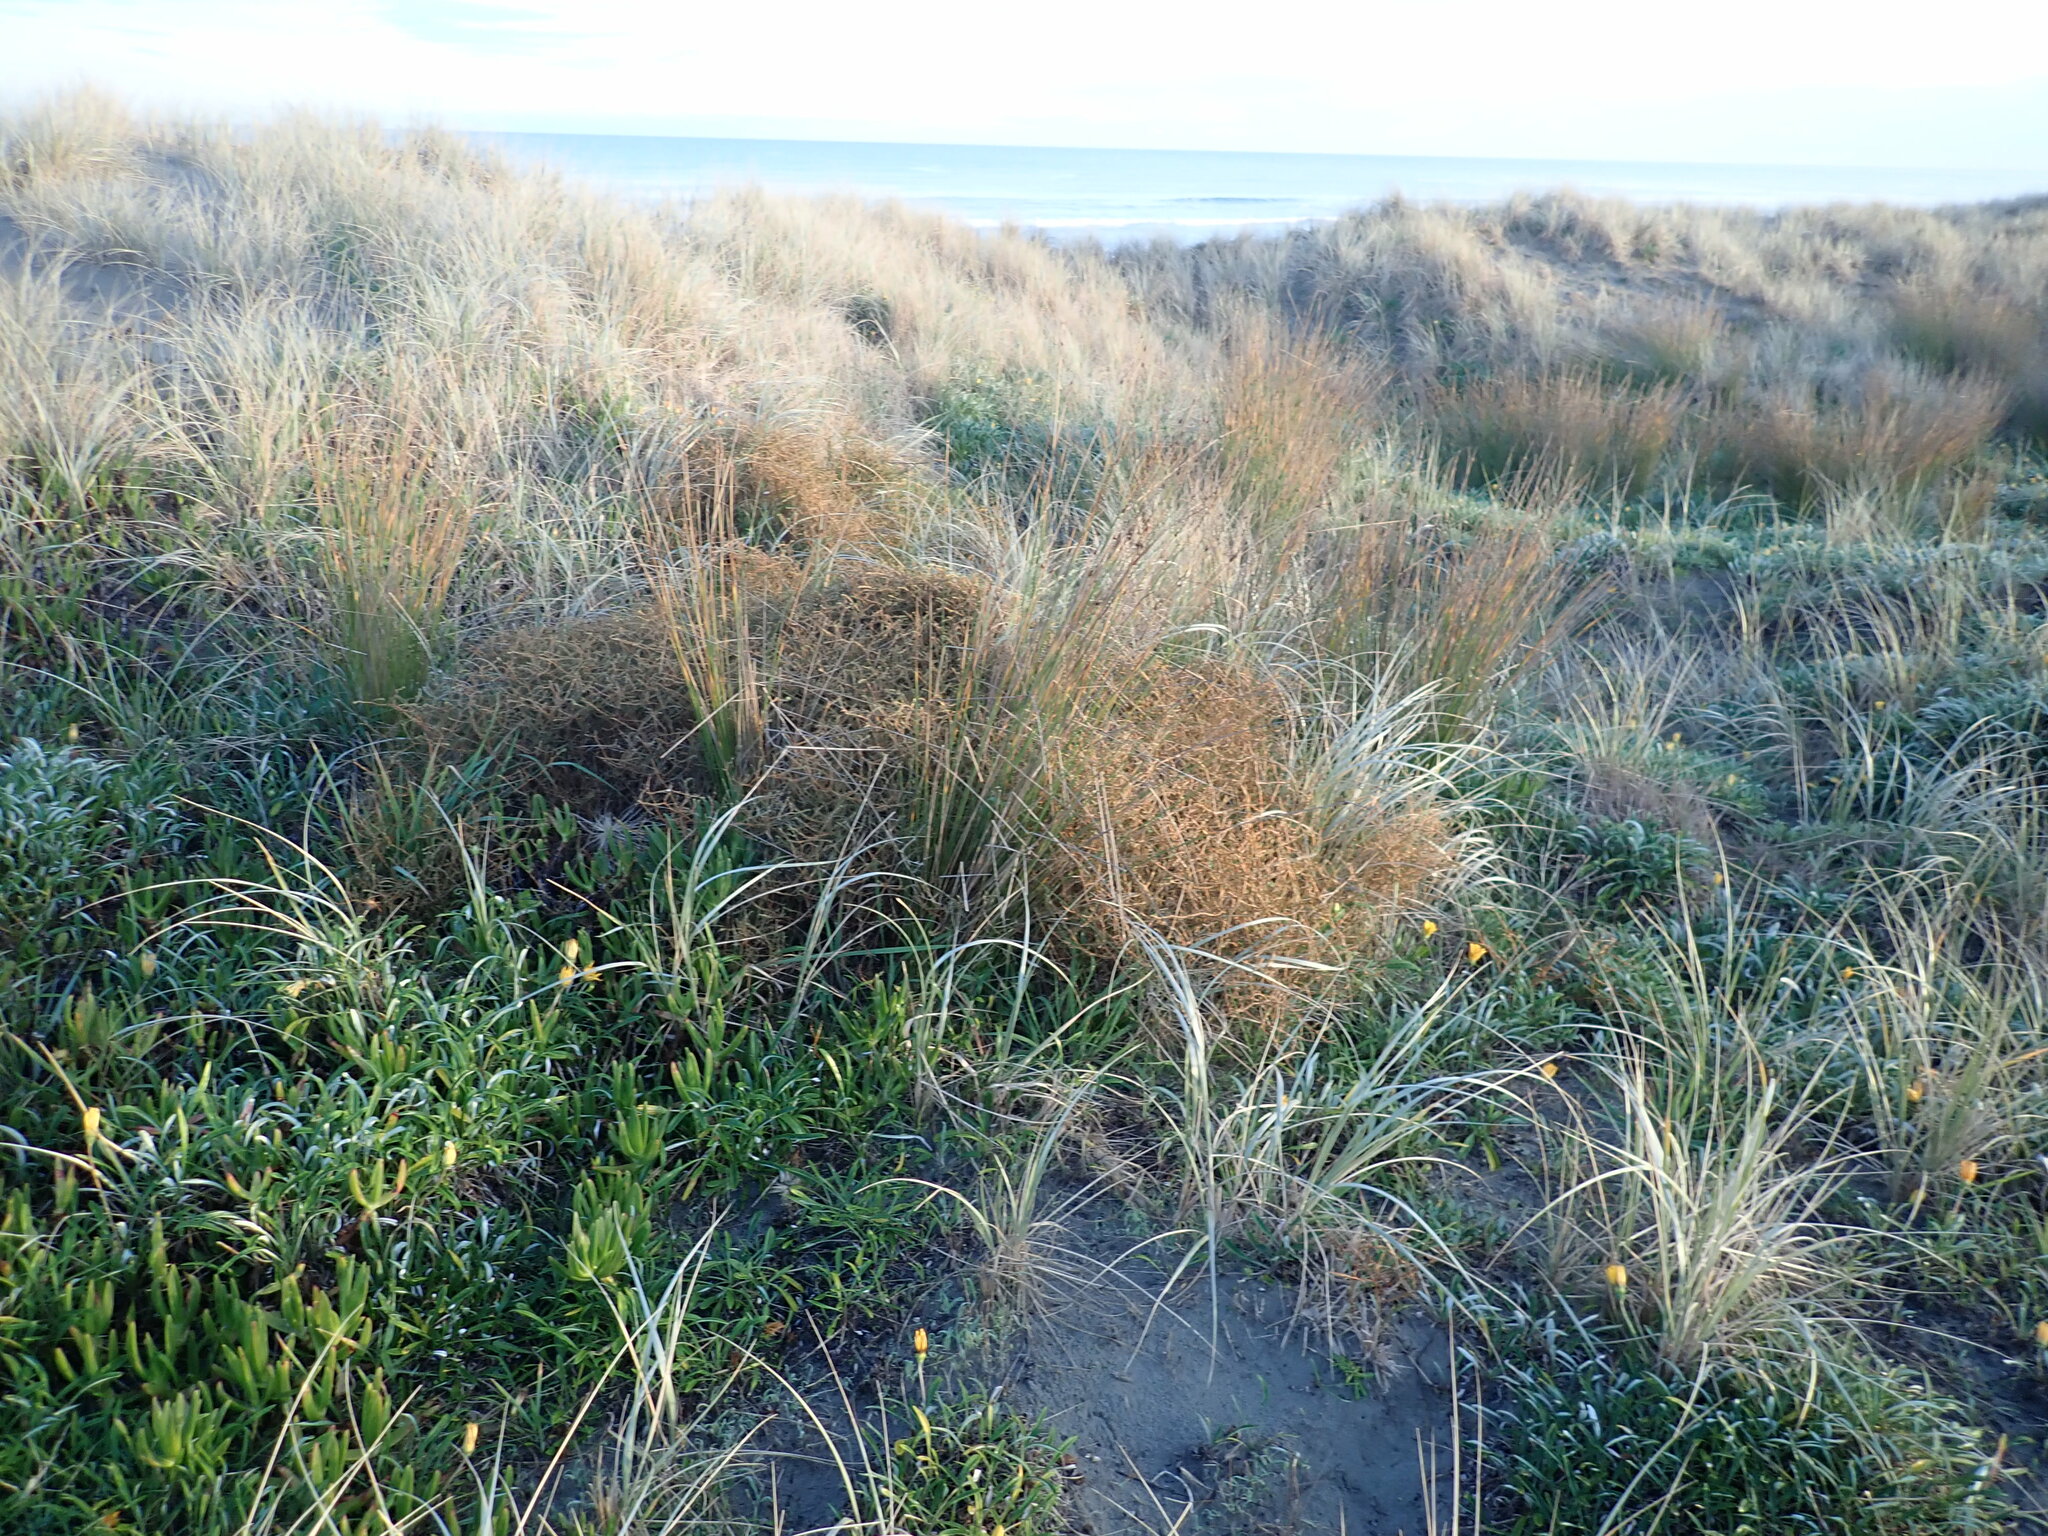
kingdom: Plantae
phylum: Tracheophyta
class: Magnoliopsida
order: Gentianales
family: Rubiaceae
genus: Coprosma
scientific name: Coprosma acerosa
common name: Sand coprosma
